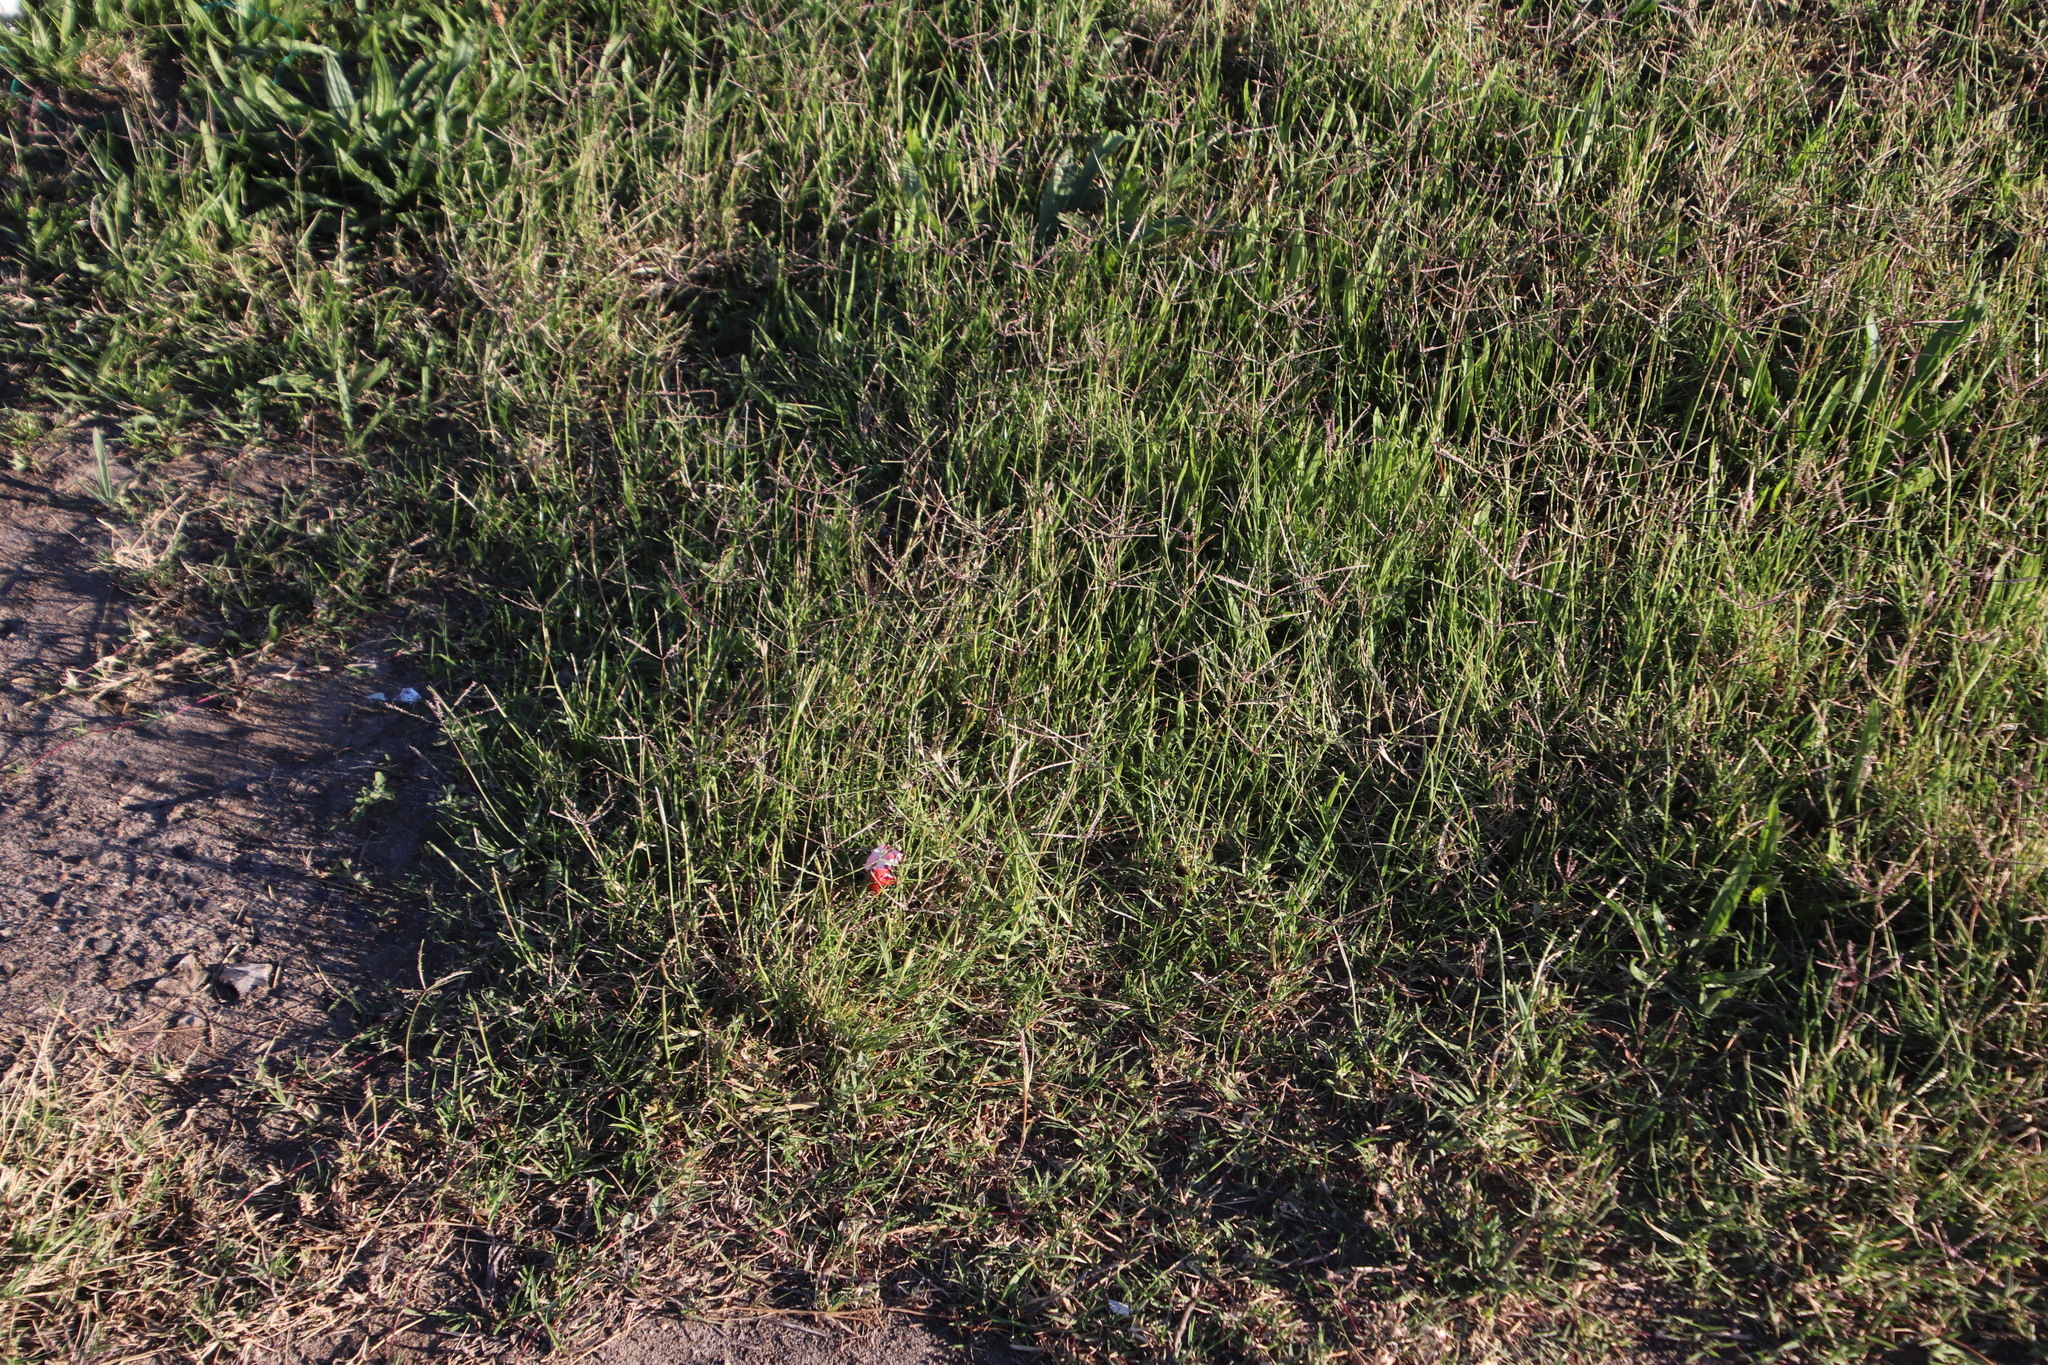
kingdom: Plantae
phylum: Tracheophyta
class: Liliopsida
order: Poales
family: Poaceae
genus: Cynodon
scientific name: Cynodon dactylon
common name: Bermuda grass
